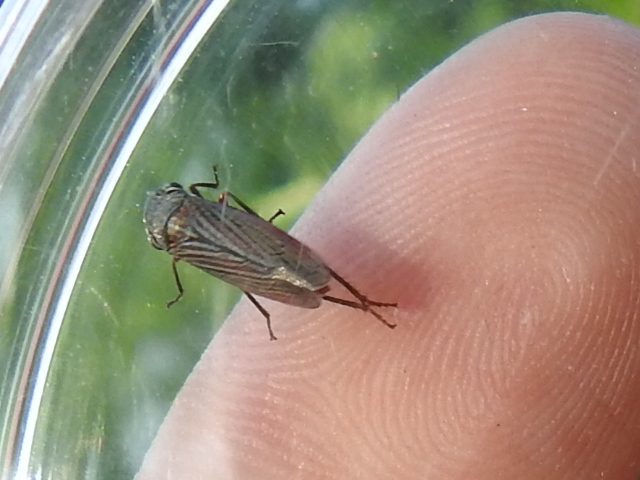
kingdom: Animalia
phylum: Arthropoda
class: Insecta
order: Hemiptera
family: Cicadellidae
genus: Cuerna
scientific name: Cuerna costalis
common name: Lateral-lined sharpshooter
